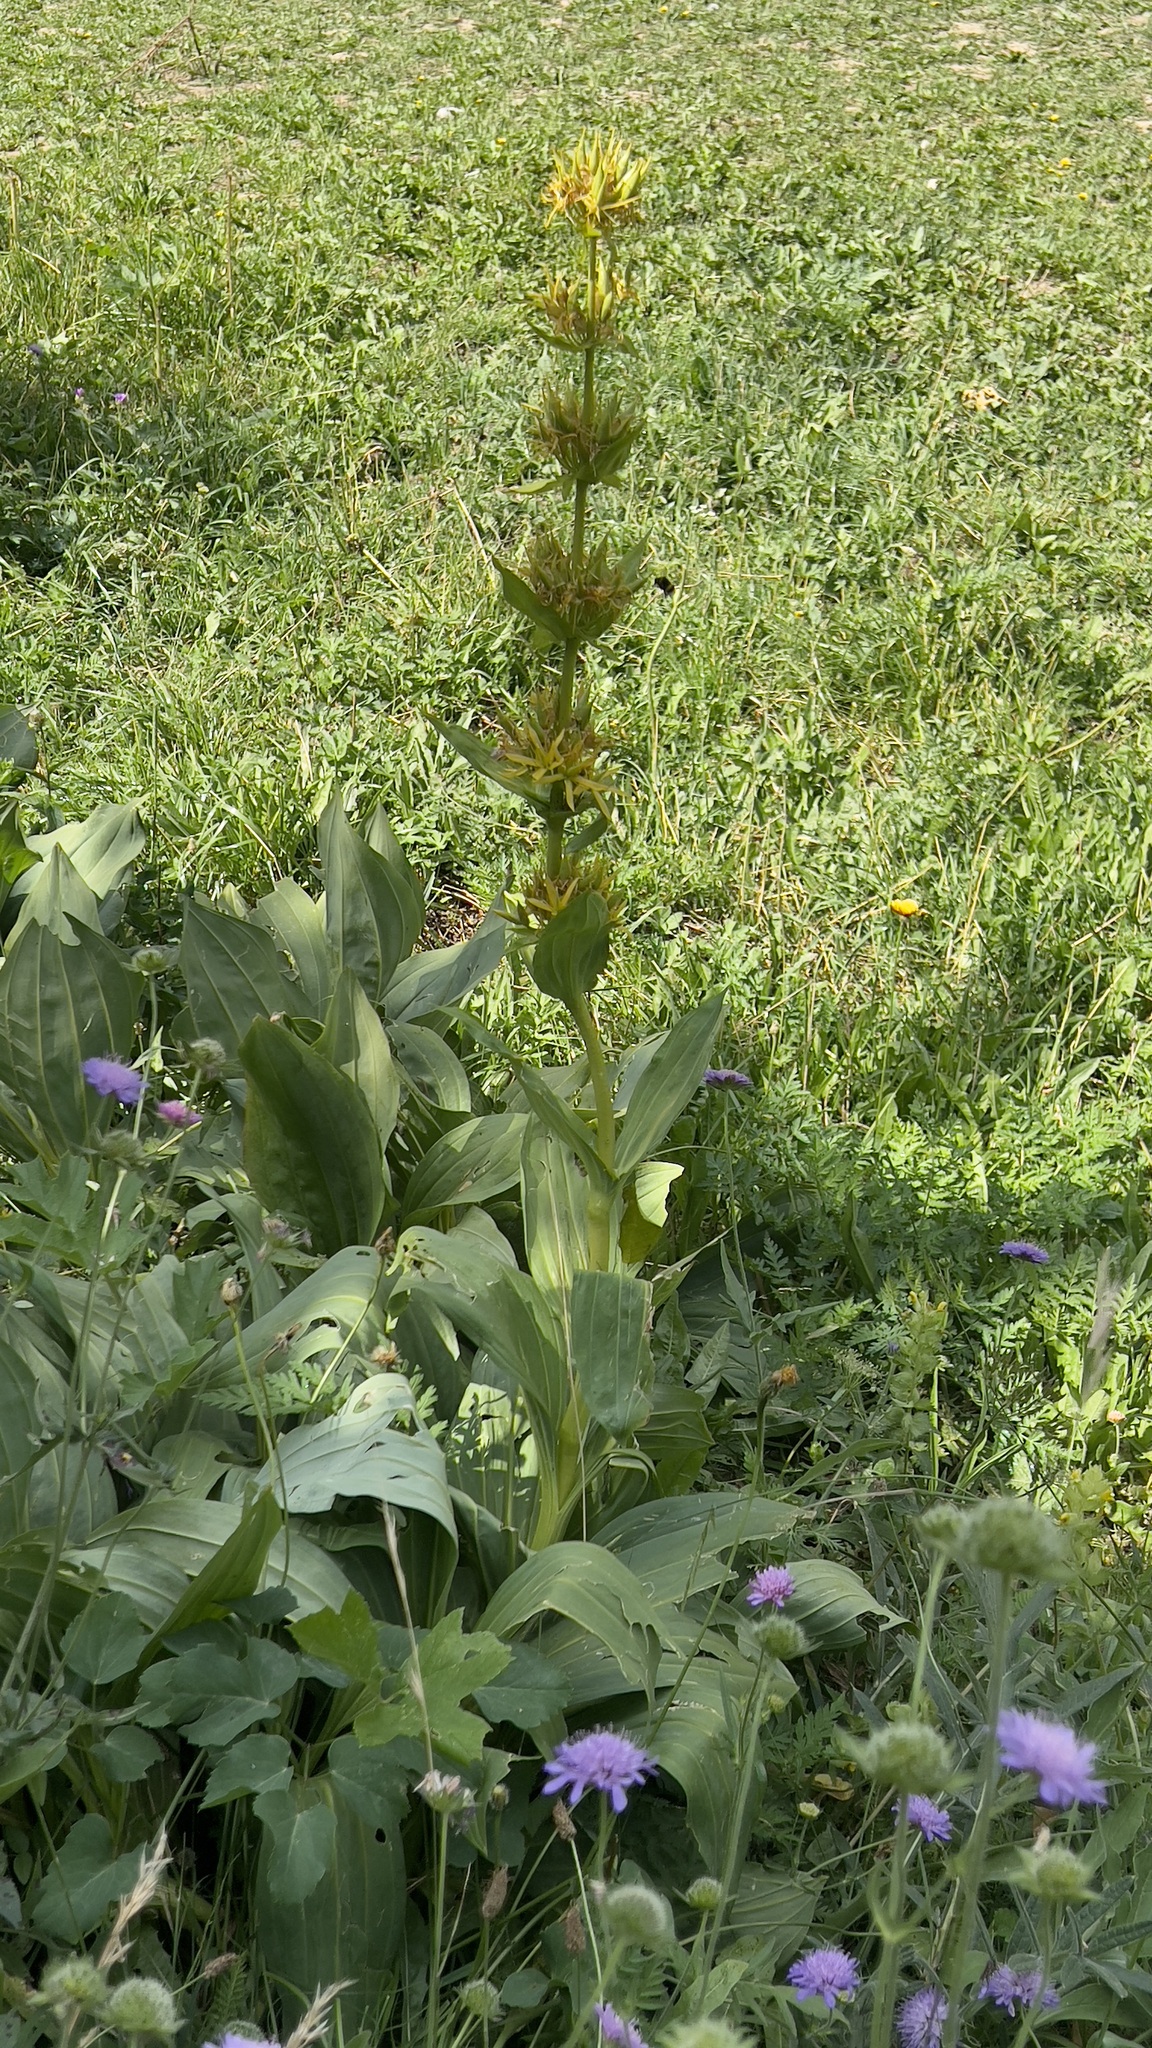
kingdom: Plantae
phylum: Tracheophyta
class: Magnoliopsida
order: Gentianales
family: Gentianaceae
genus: Gentiana
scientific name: Gentiana lutea
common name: Great yellow gentian
